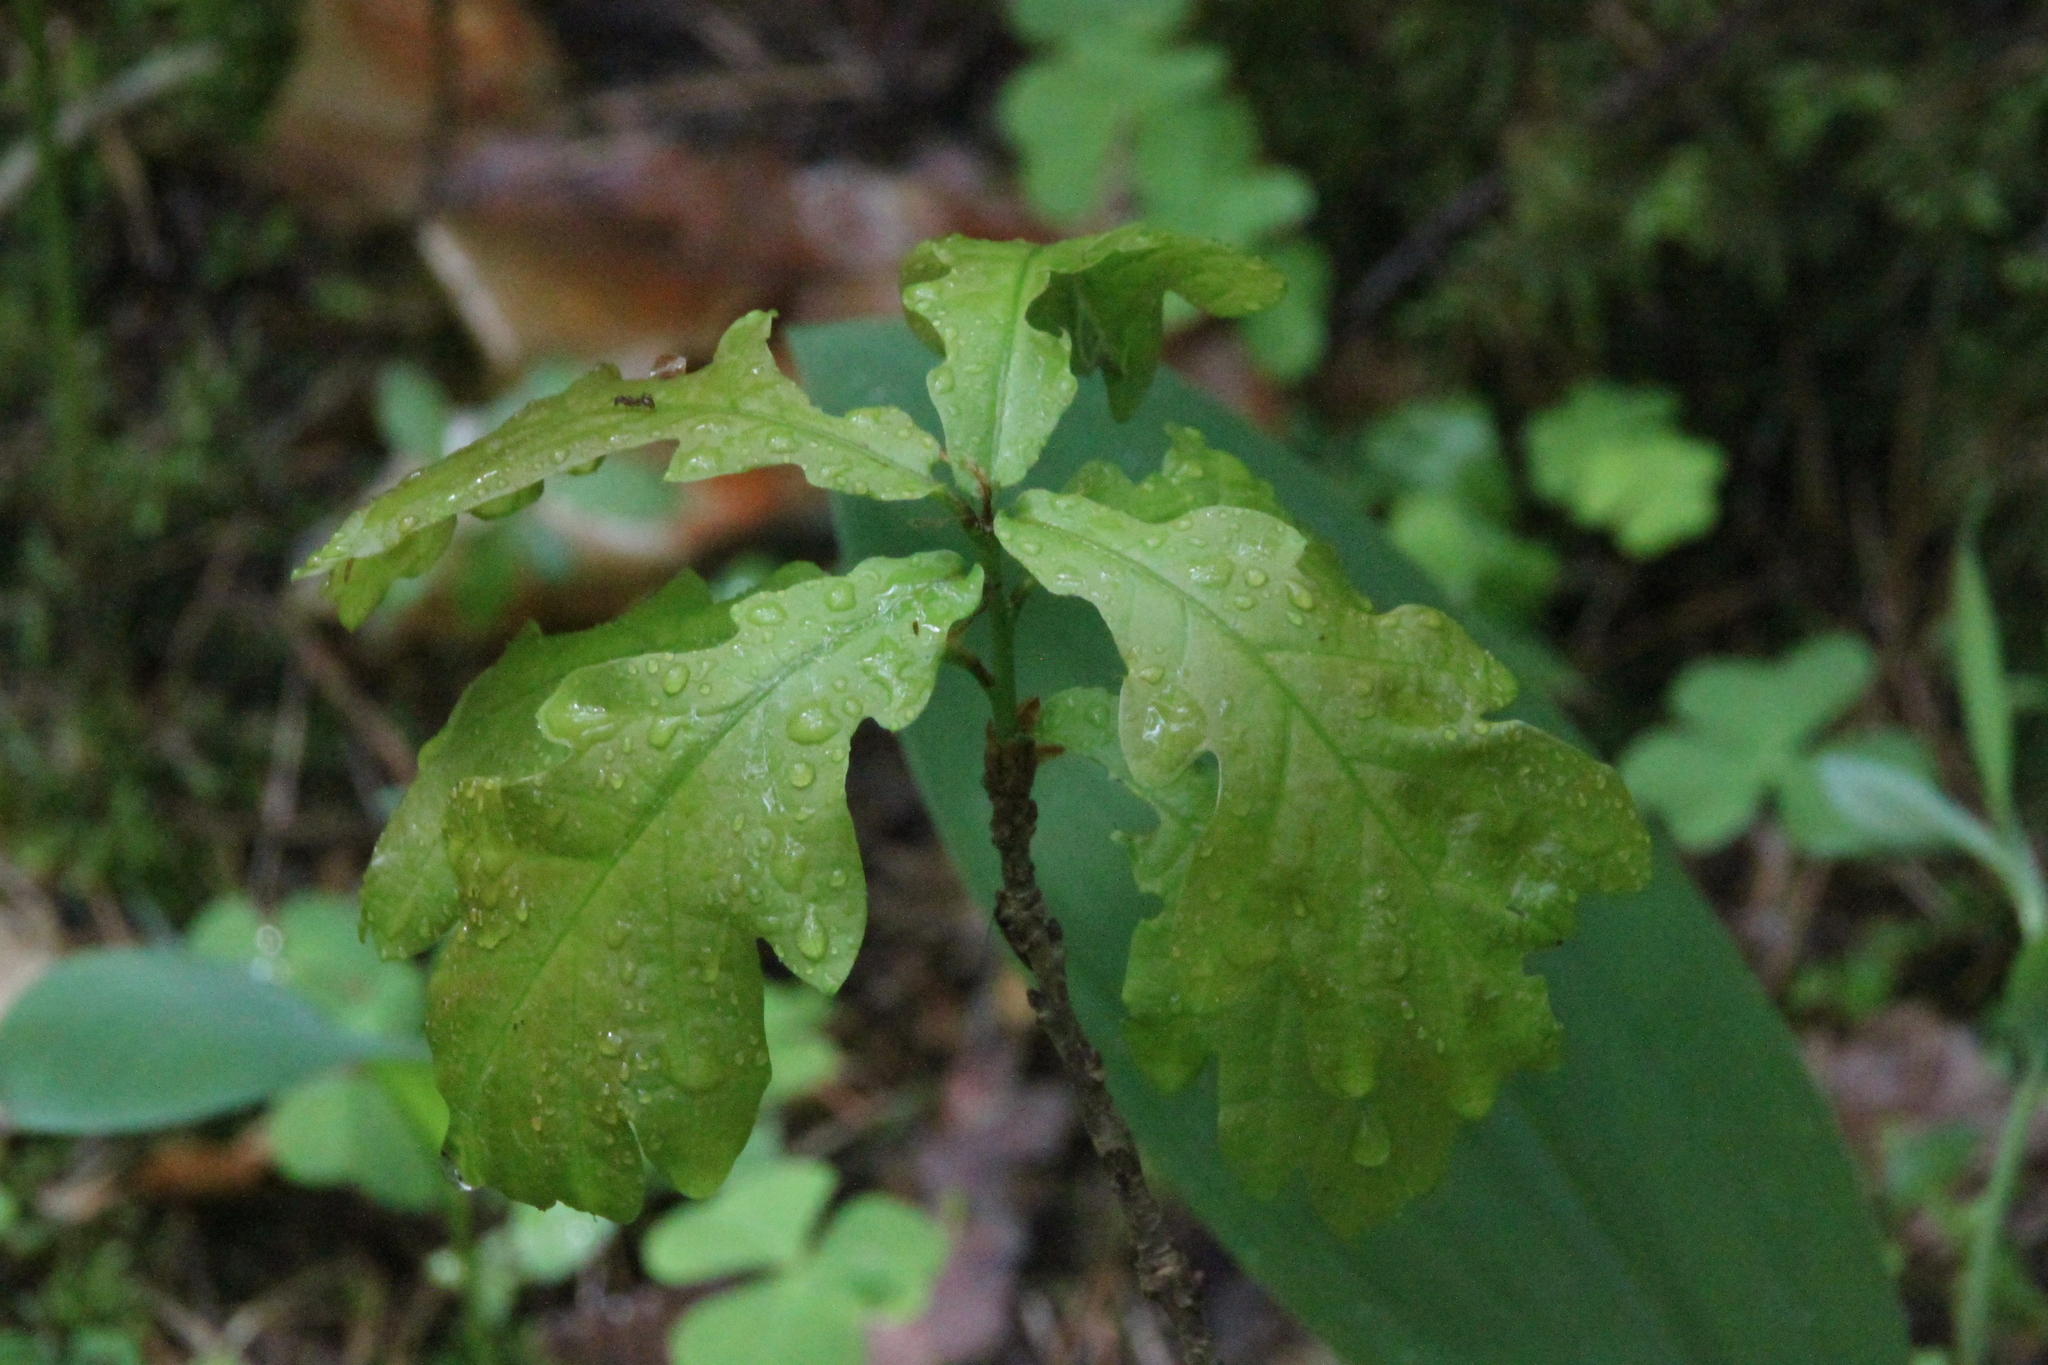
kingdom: Plantae
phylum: Tracheophyta
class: Magnoliopsida
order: Fagales
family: Fagaceae
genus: Quercus
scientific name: Quercus robur
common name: Pedunculate oak
